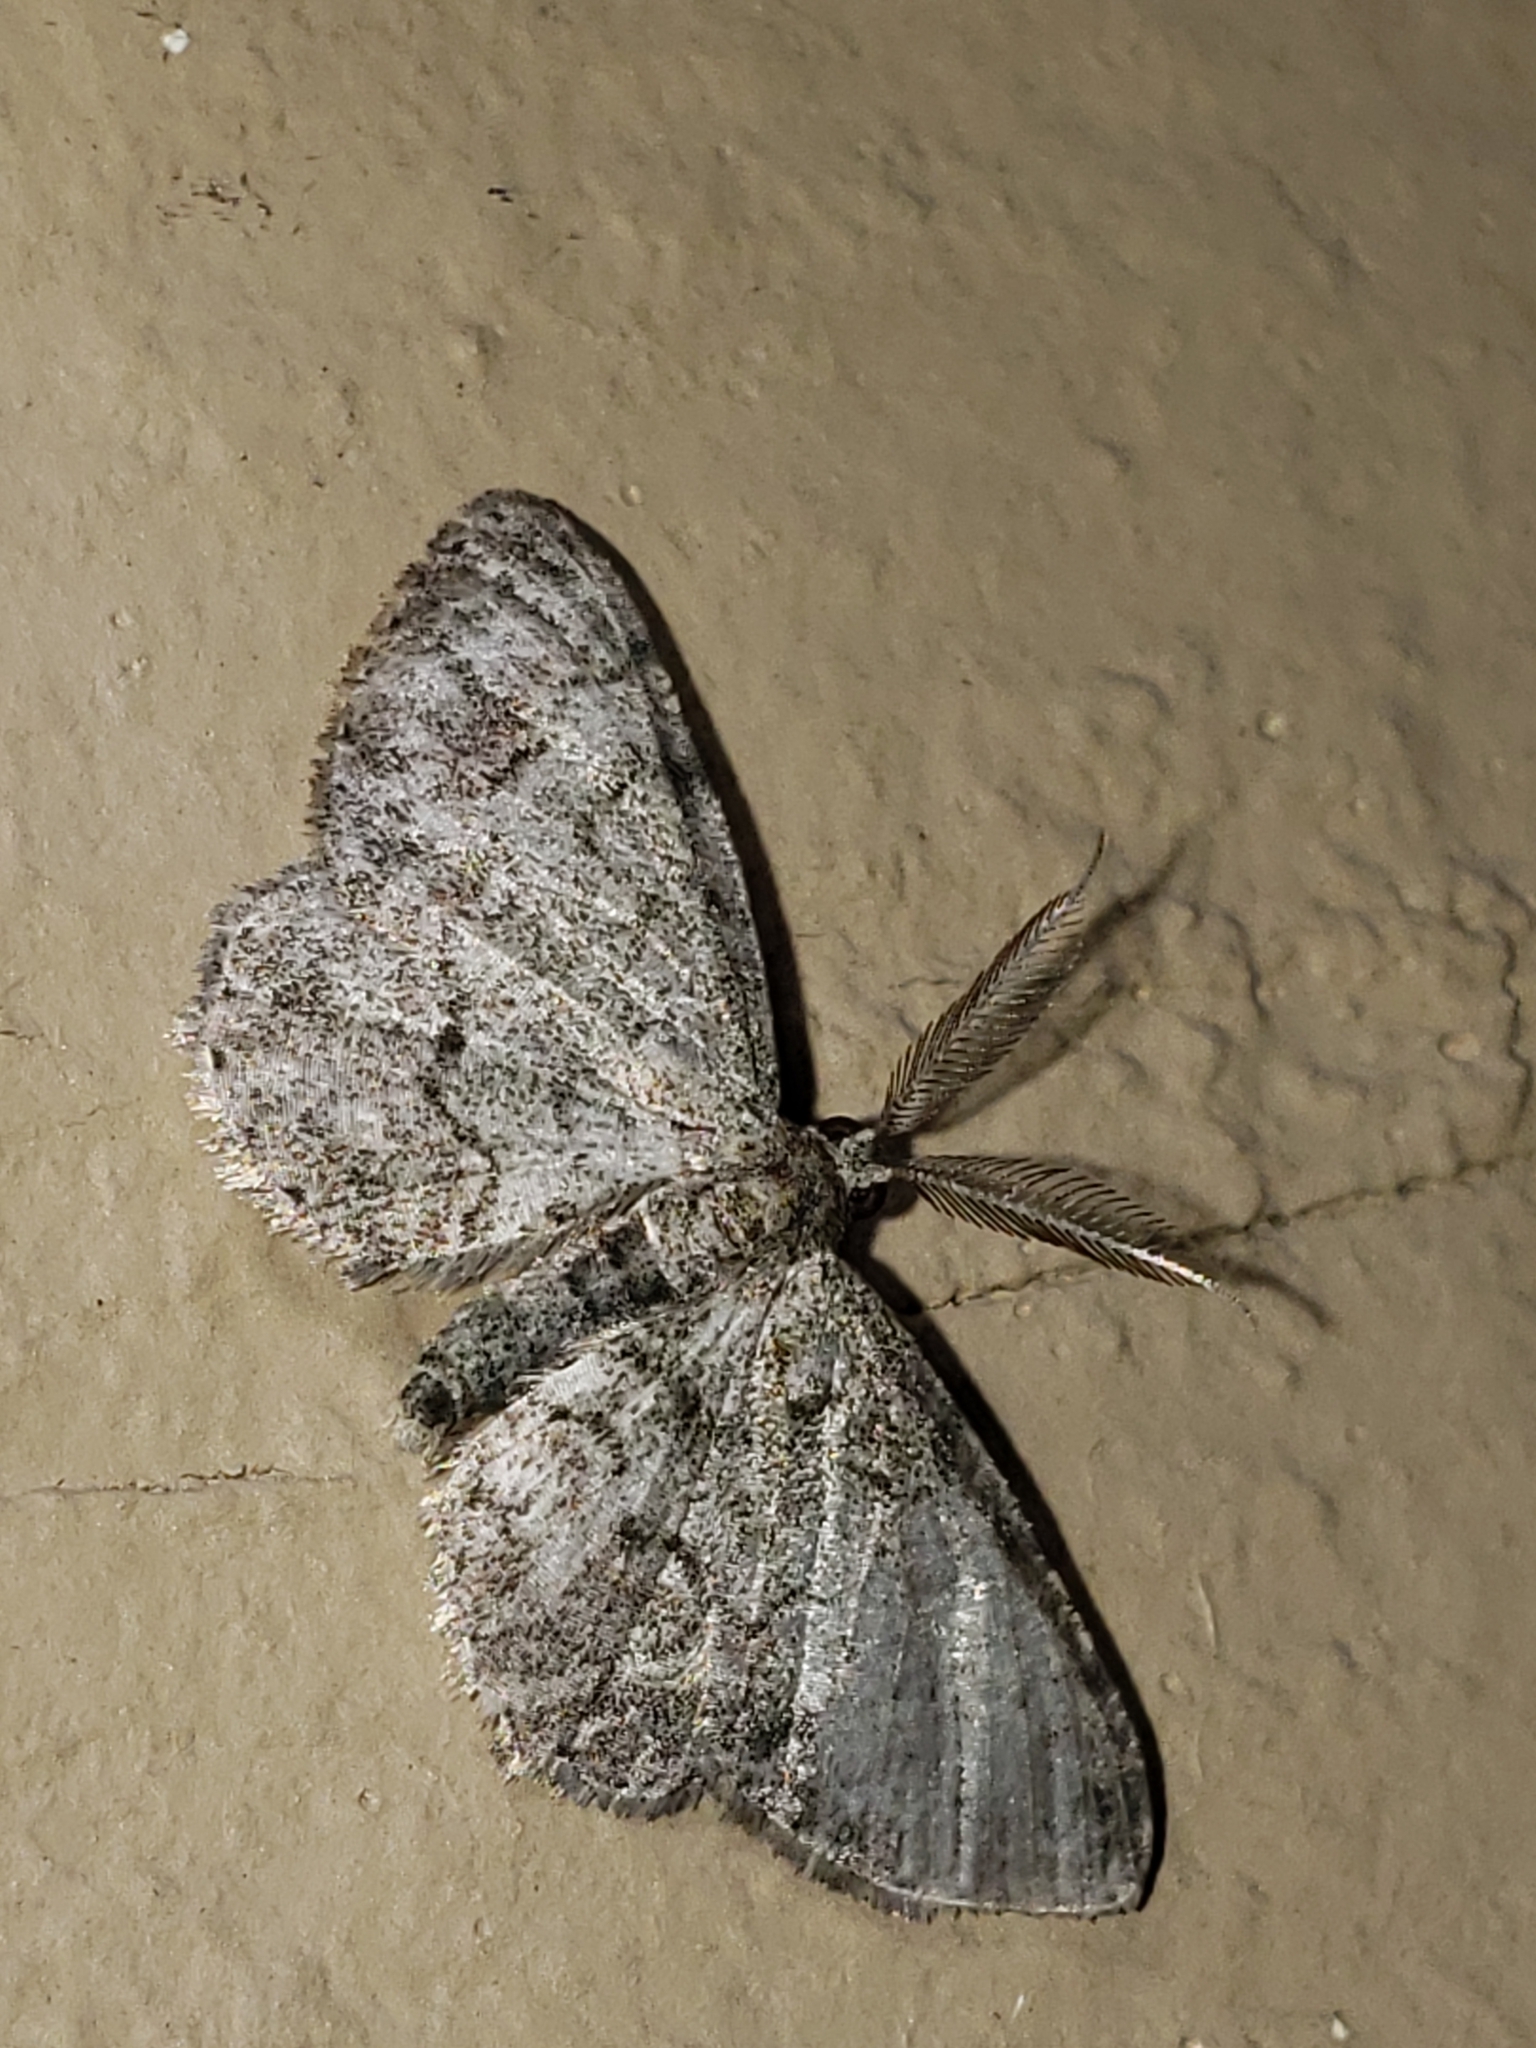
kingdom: Animalia
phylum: Arthropoda
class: Insecta
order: Lepidoptera
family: Geometridae
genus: Glenoides
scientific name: Glenoides texanaria
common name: Texas gray
